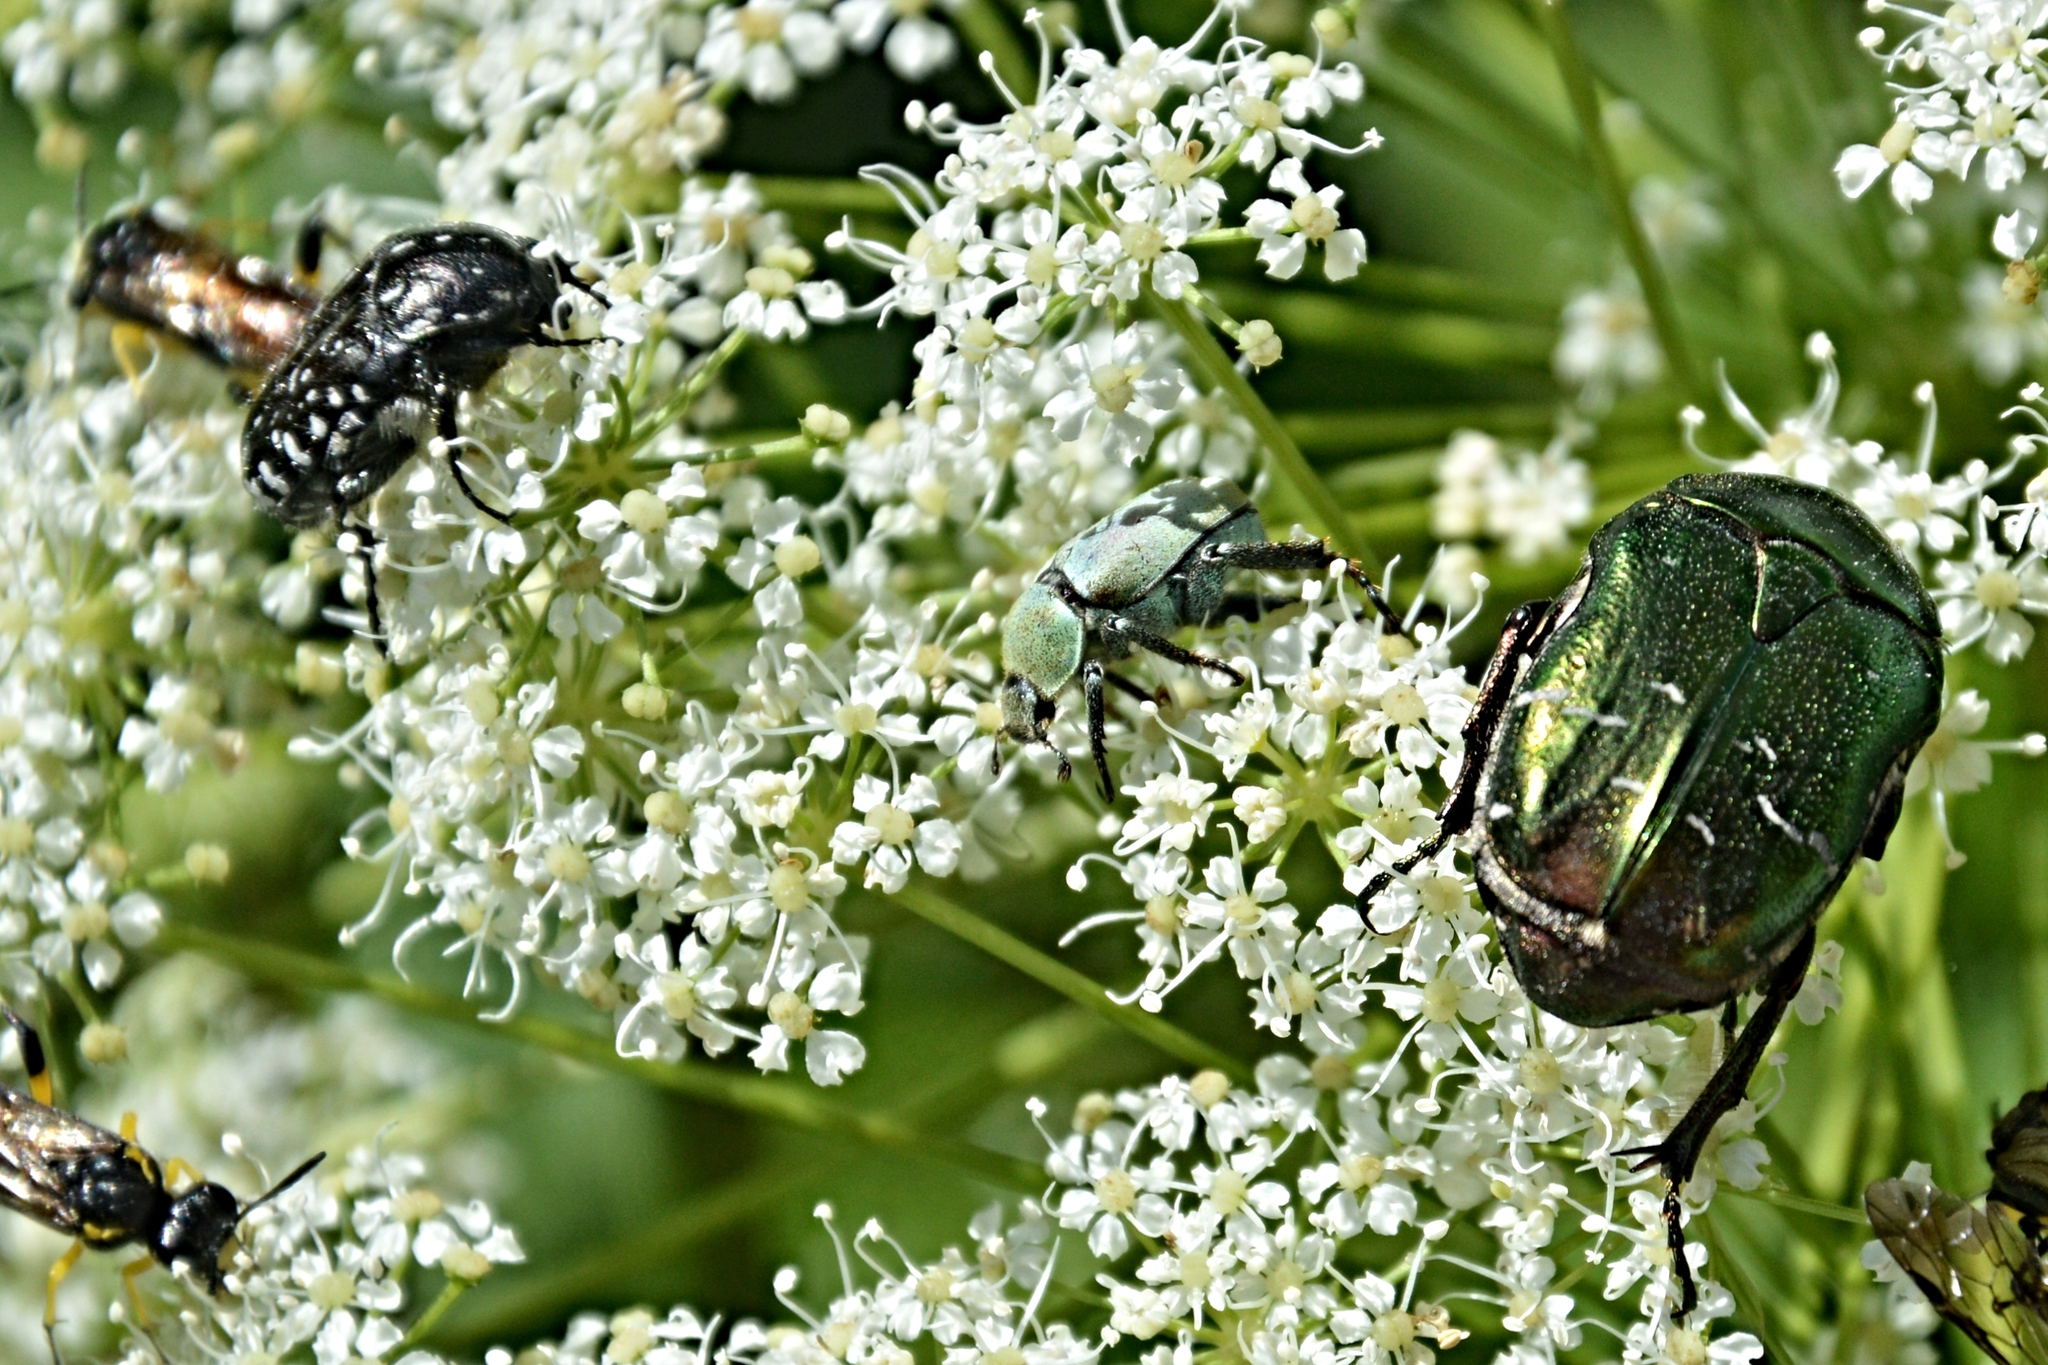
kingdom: Animalia
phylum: Arthropoda
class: Insecta
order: Coleoptera
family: Scarabaeidae
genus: Cetonia
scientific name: Cetonia aurata
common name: Rose chafer
